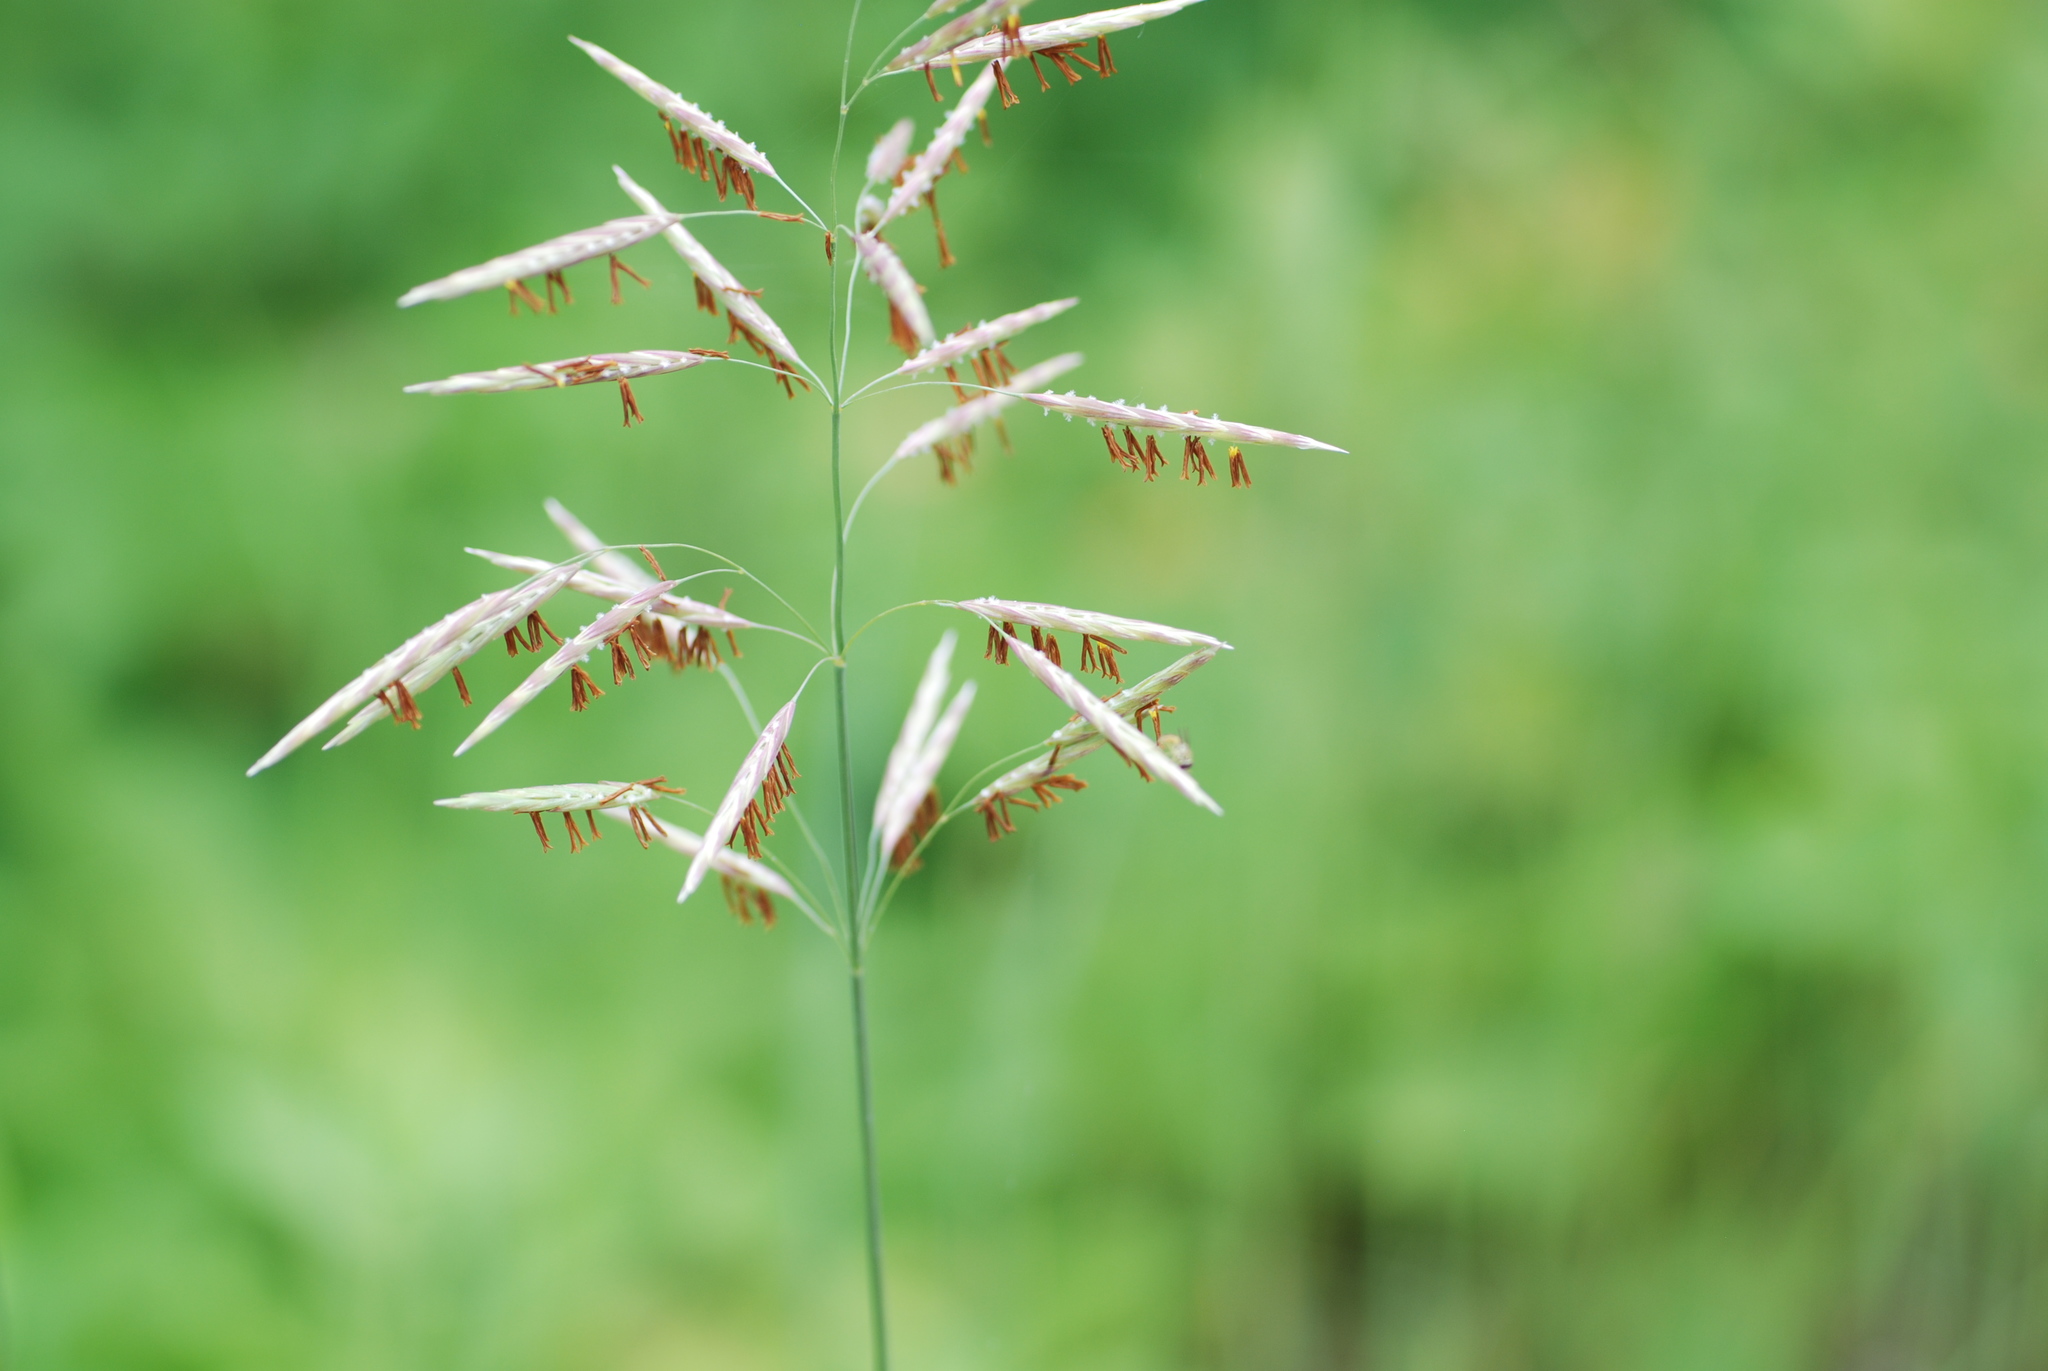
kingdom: Plantae
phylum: Tracheophyta
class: Liliopsida
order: Poales
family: Poaceae
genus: Bromus
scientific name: Bromus inermis
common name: Smooth brome
